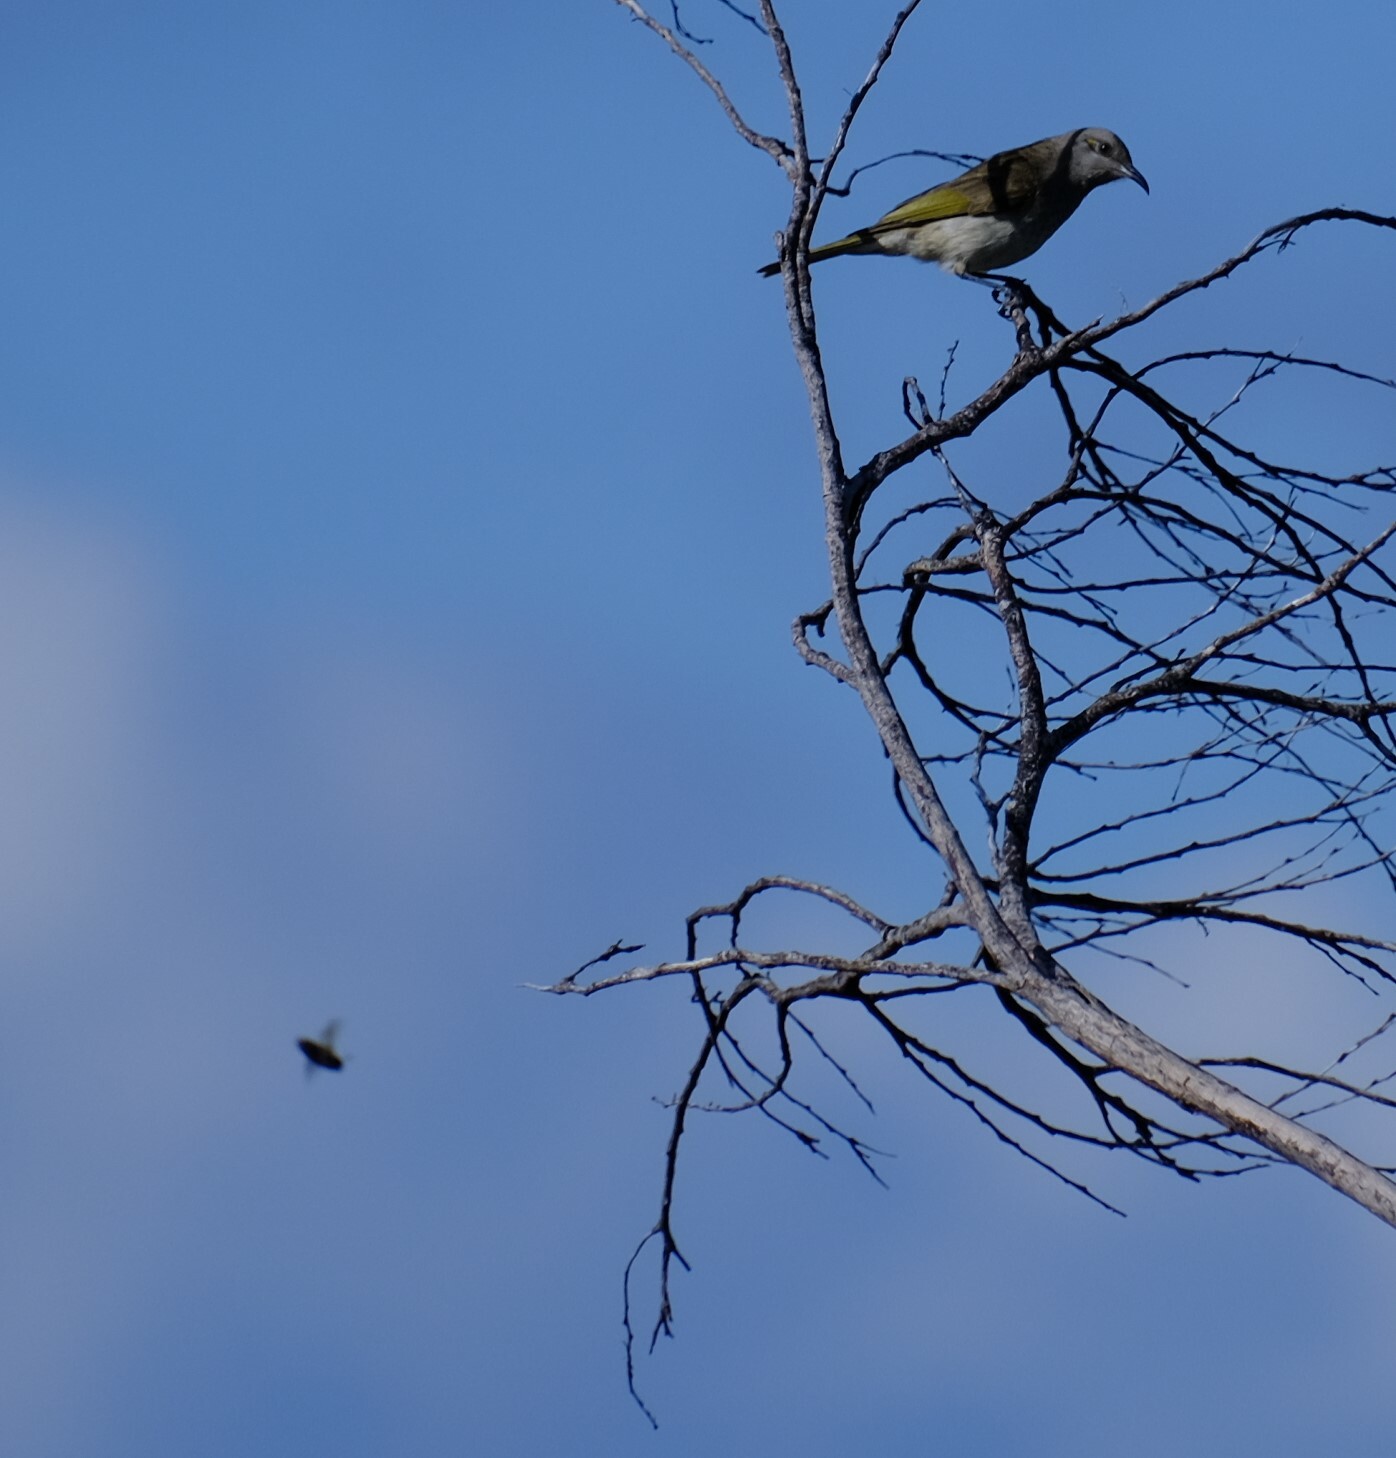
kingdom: Animalia
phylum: Chordata
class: Aves
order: Passeriformes
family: Meliphagidae
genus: Lichmera
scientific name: Lichmera indistincta
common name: Brown honeyeater
